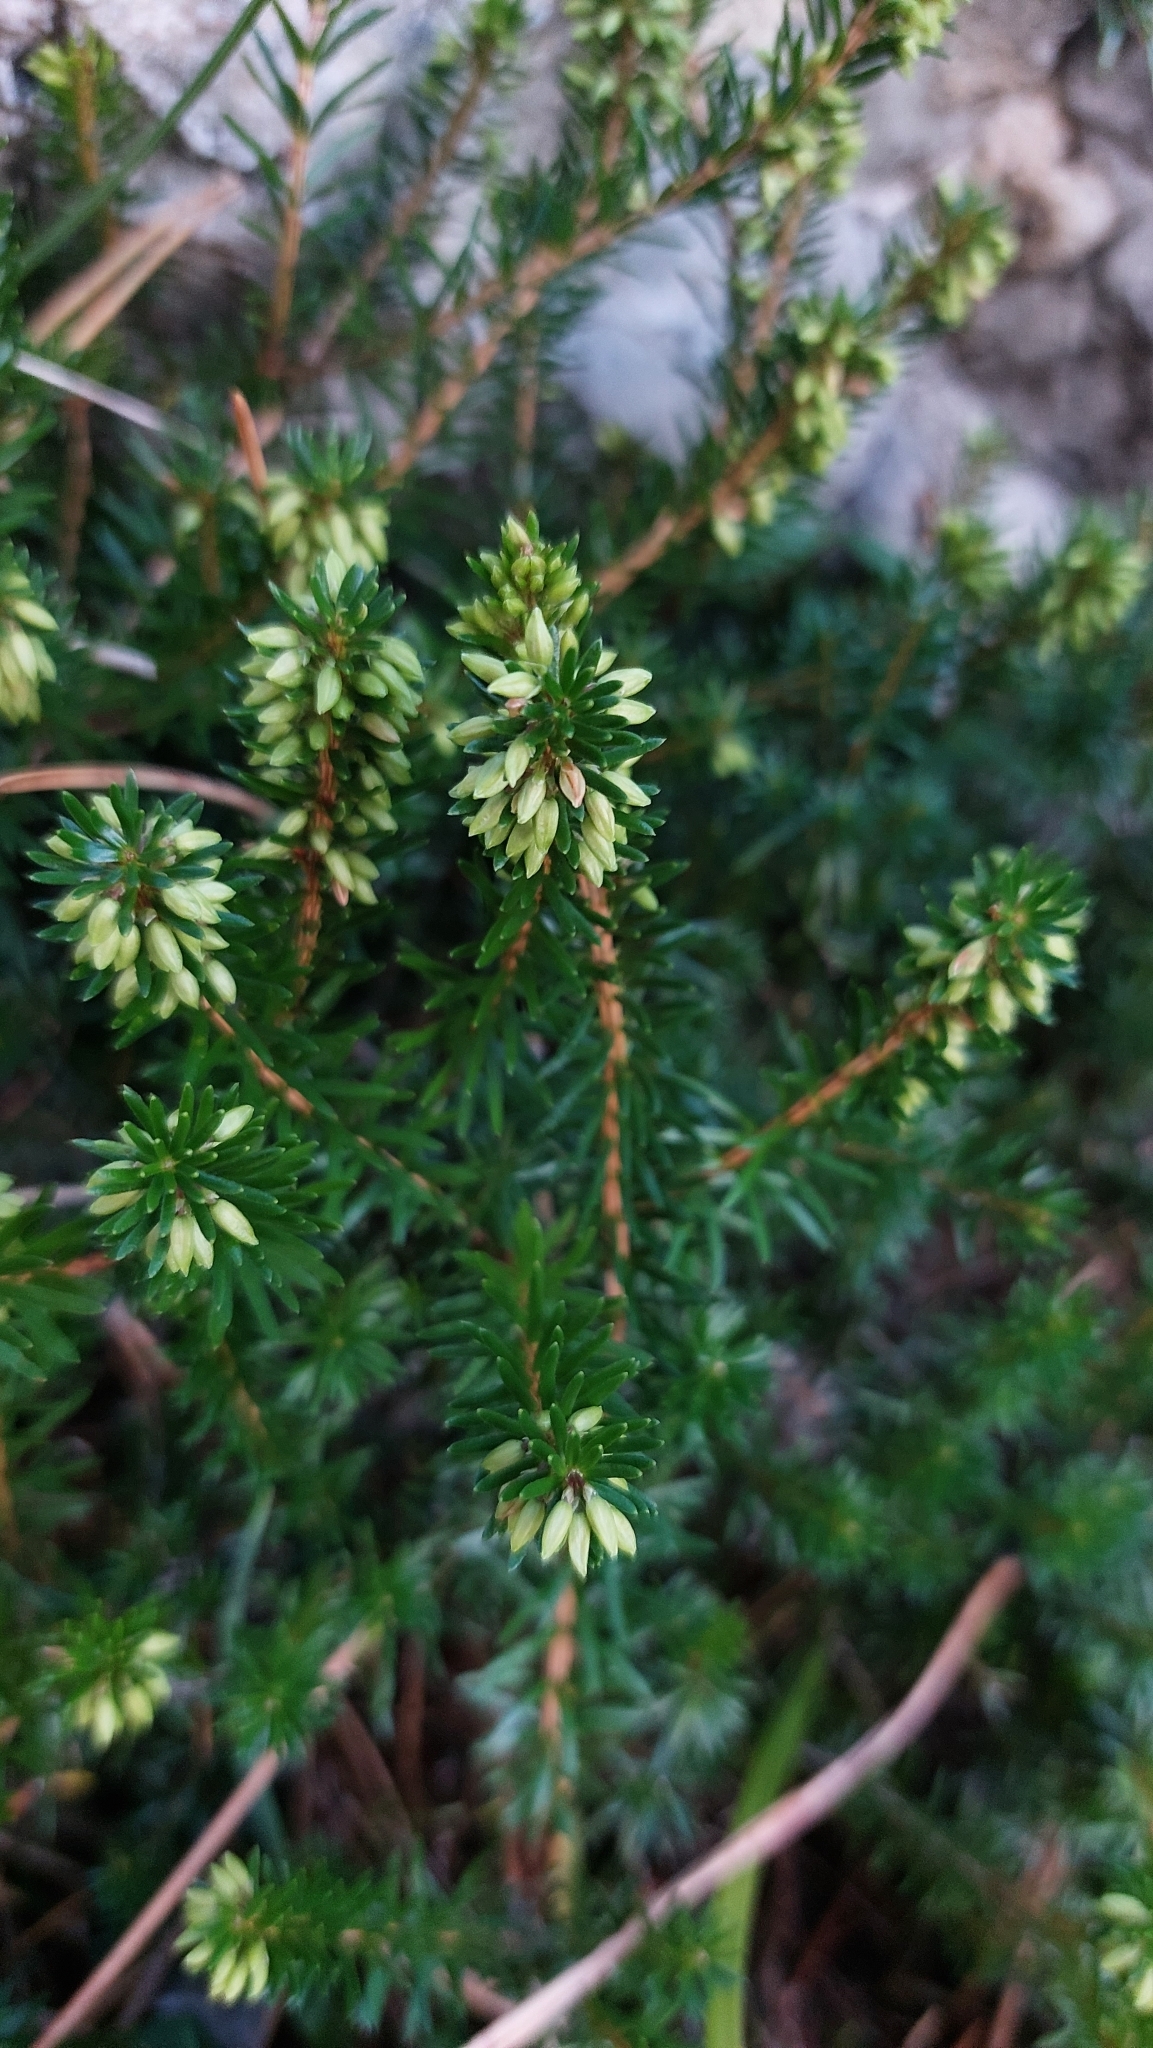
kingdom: Plantae
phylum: Tracheophyta
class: Magnoliopsida
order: Ericales
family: Ericaceae
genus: Erica
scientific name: Erica carnea
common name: Winter heath
